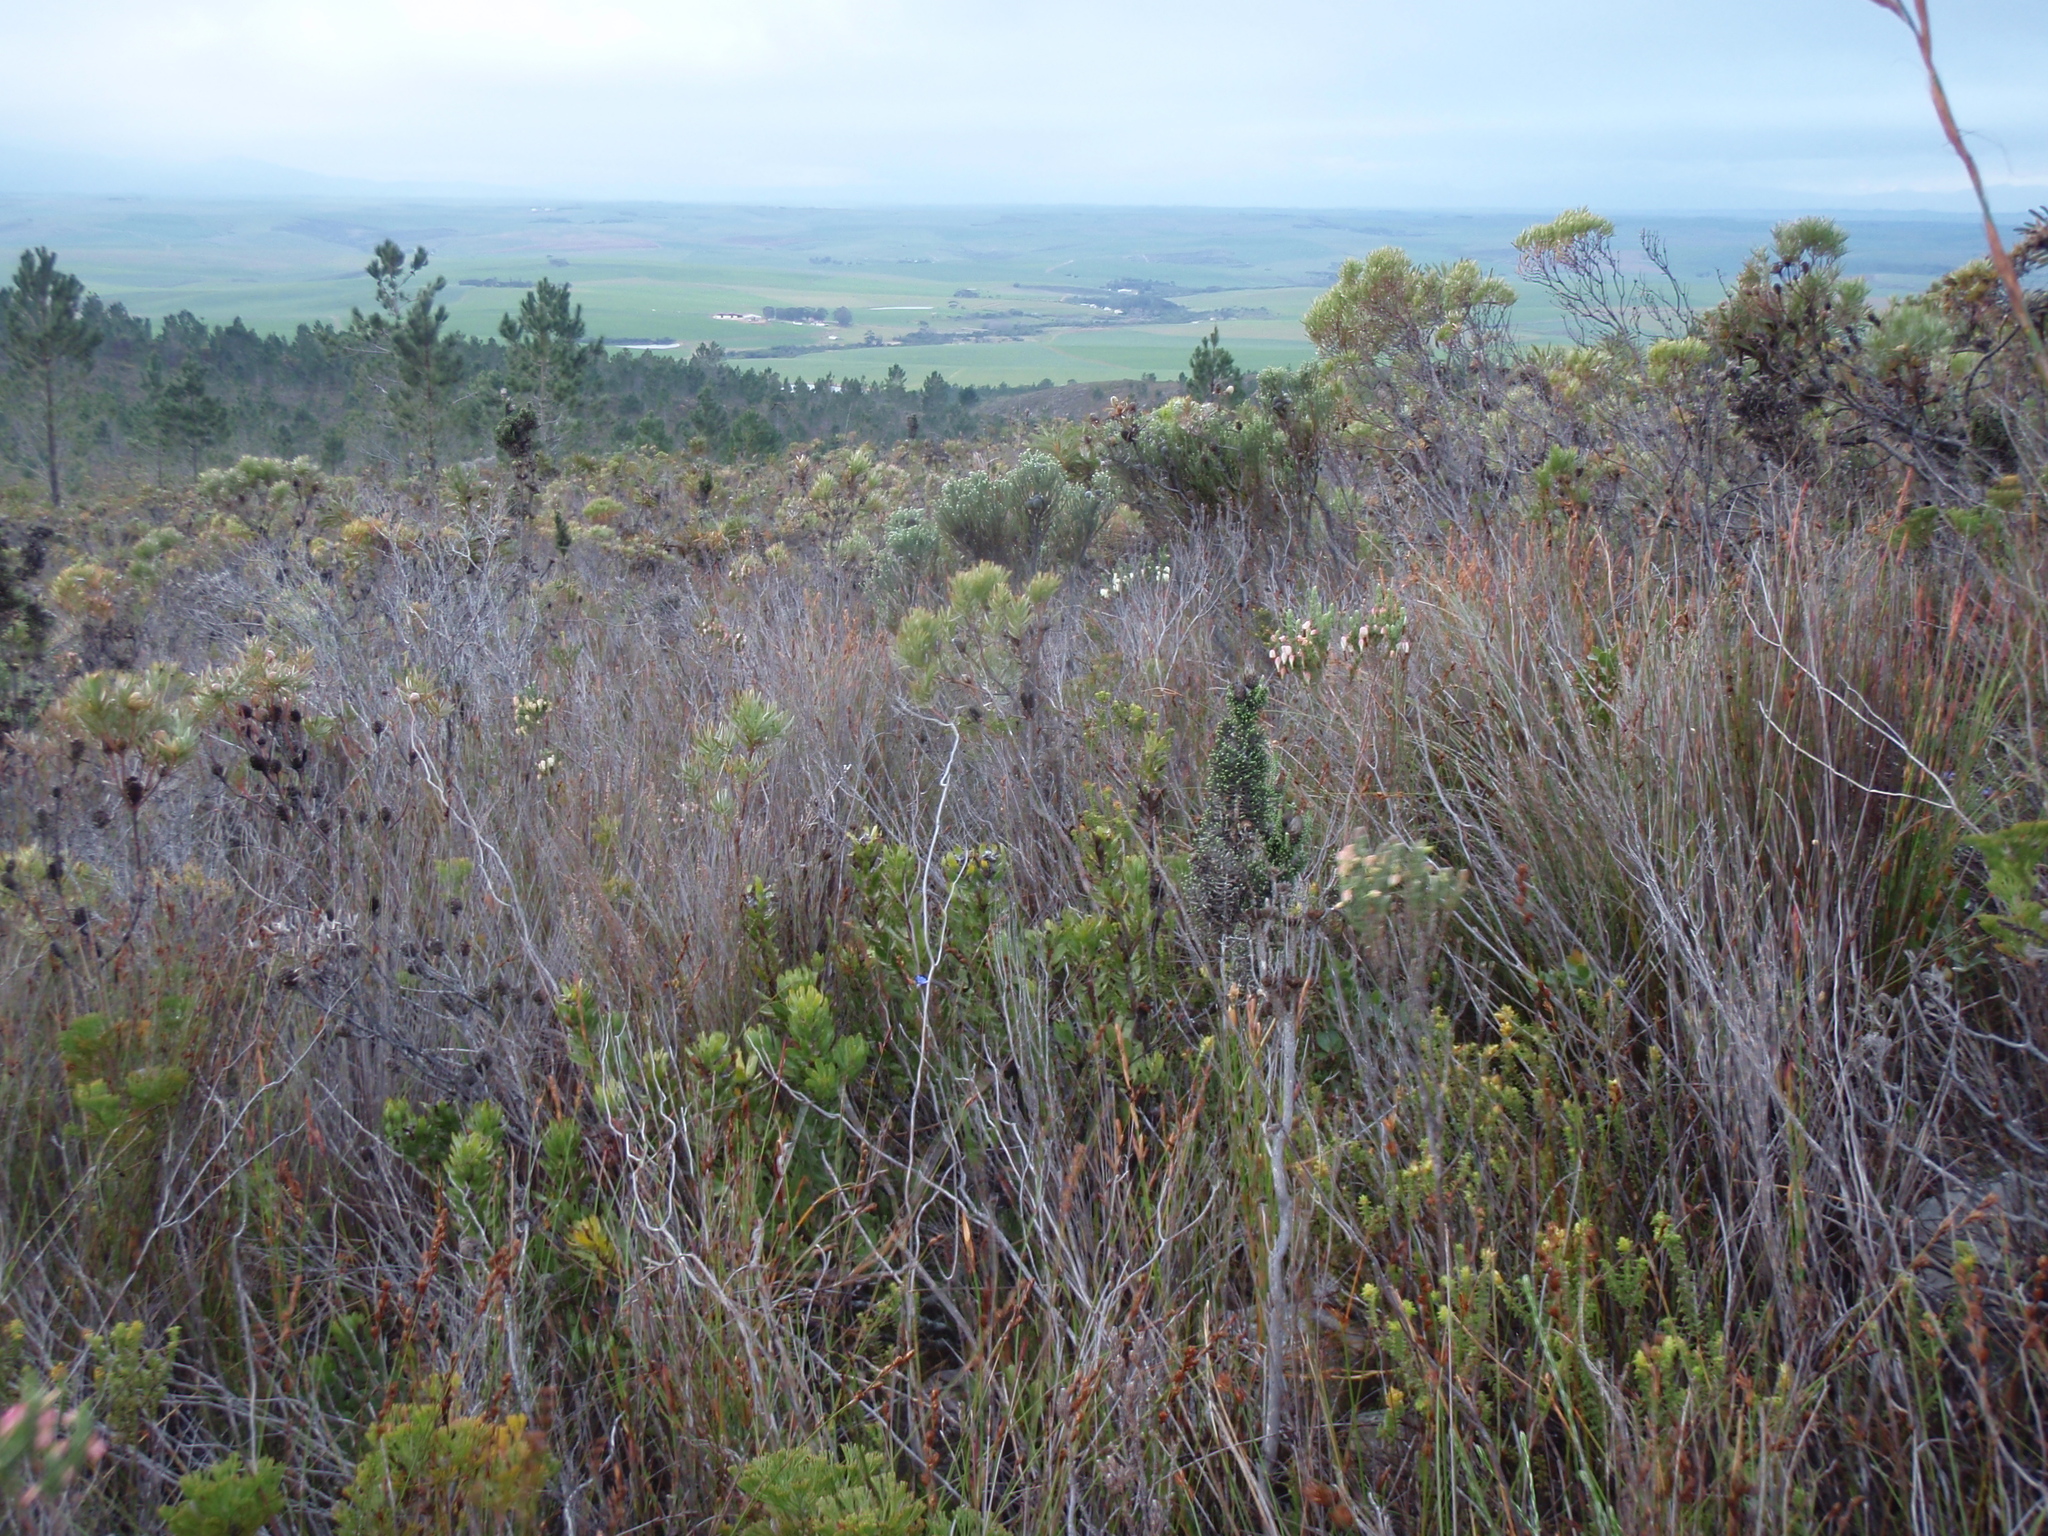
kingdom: Plantae
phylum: Tracheophyta
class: Magnoliopsida
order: Ericales
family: Ericaceae
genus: Erica
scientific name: Erica plukenetii
